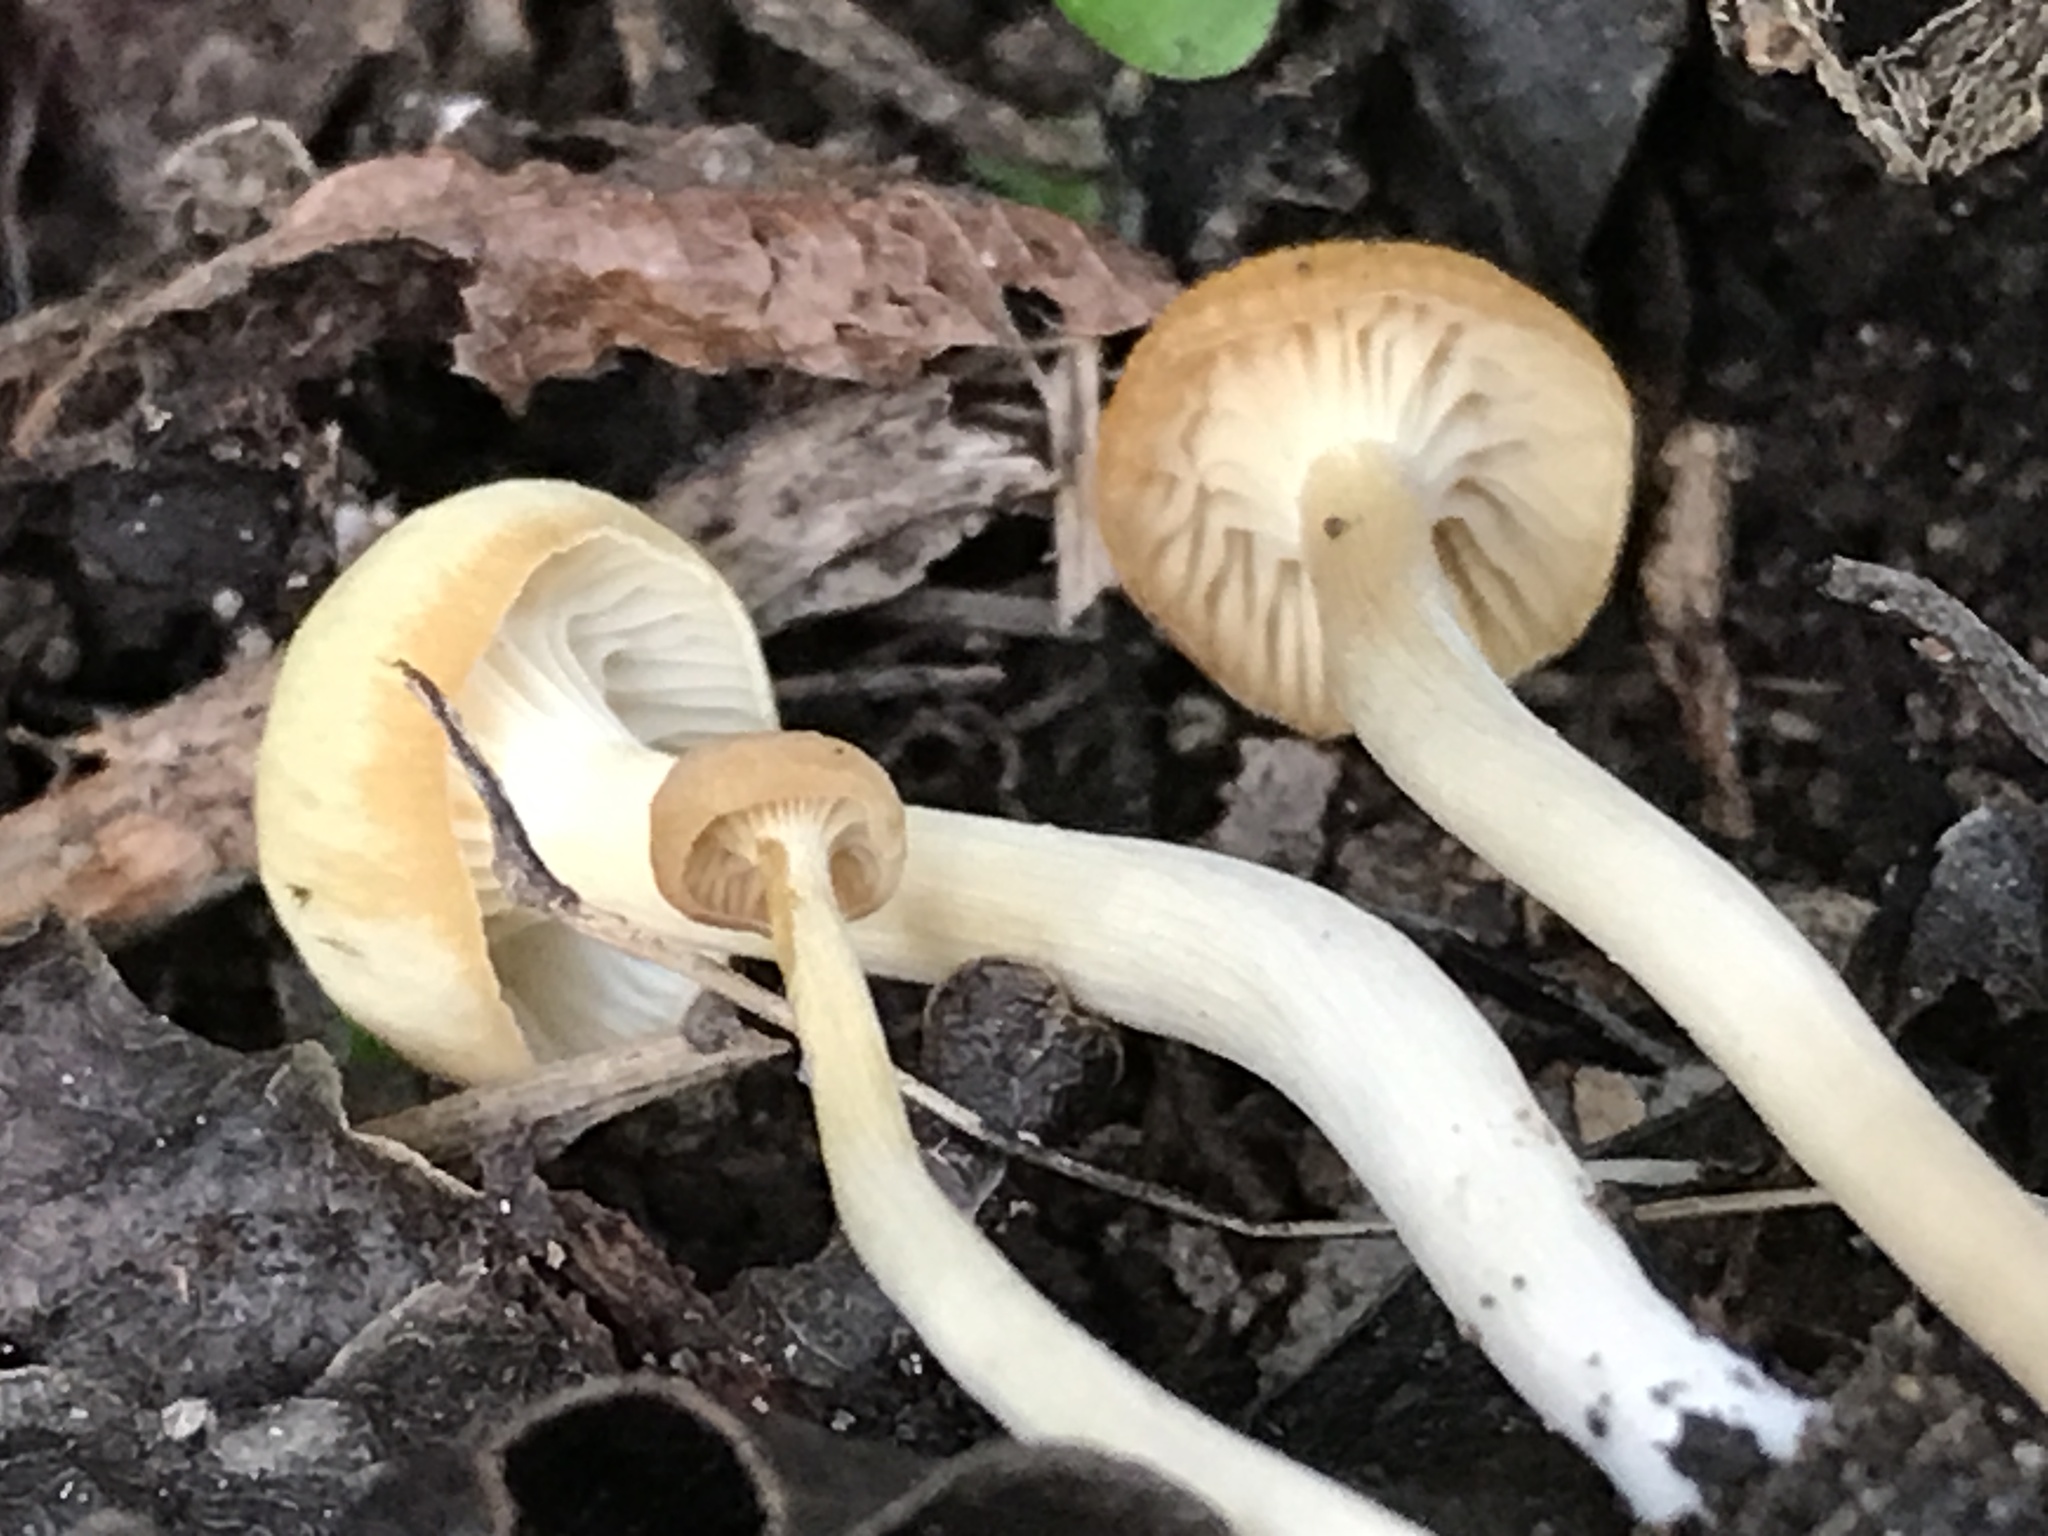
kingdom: Fungi
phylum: Basidiomycota
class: Agaricomycetes
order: Agaricales
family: Hygrophoraceae
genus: Cuphophyllus
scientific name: Cuphophyllus
